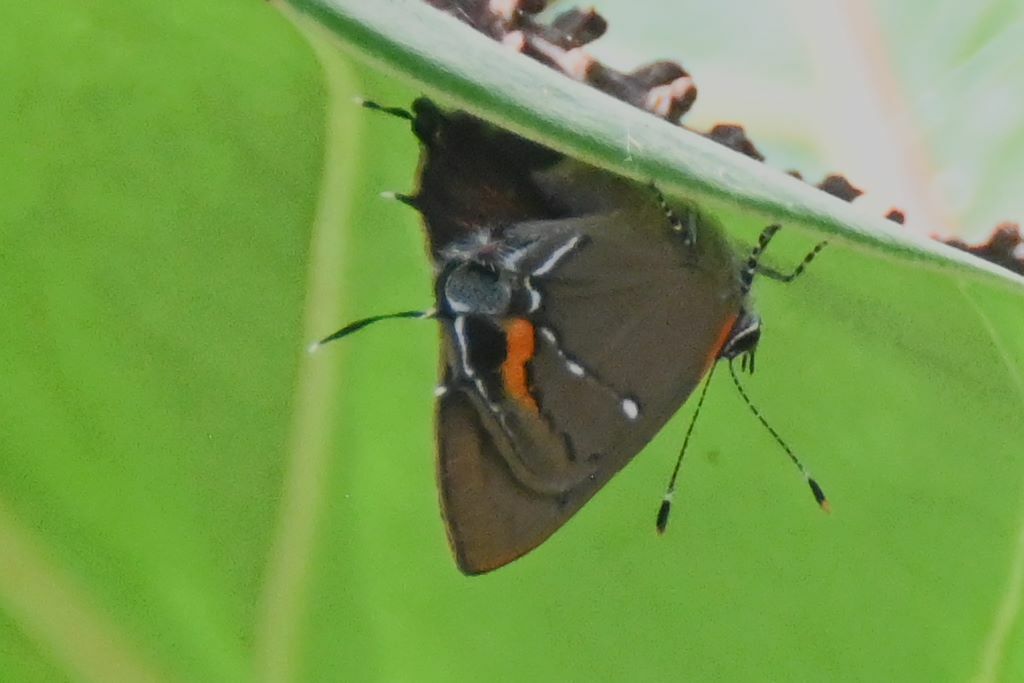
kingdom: Animalia
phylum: Arthropoda
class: Insecta
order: Lepidoptera
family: Lycaenidae
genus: Thecla
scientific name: Thecla angelia
